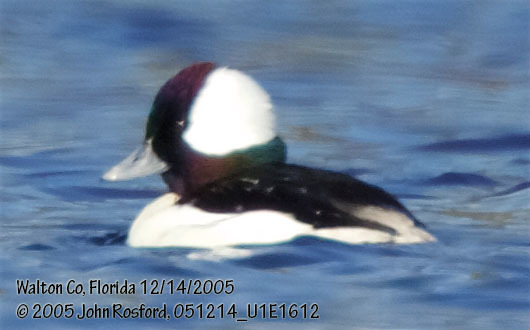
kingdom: Animalia
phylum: Chordata
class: Aves
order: Anseriformes
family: Anatidae
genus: Bucephala
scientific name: Bucephala albeola
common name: Bufflehead
